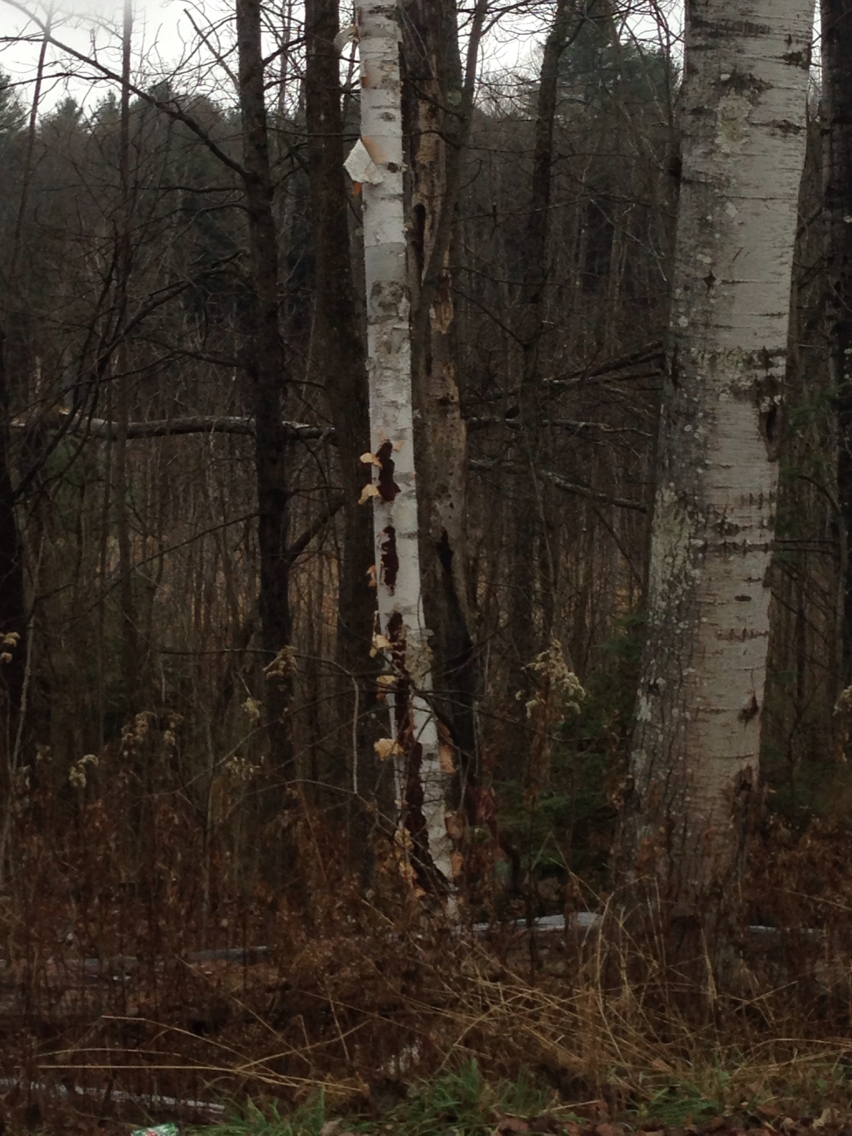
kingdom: Plantae
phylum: Tracheophyta
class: Magnoliopsida
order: Fagales
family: Betulaceae
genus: Betula
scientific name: Betula papyrifera
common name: Paper birch
